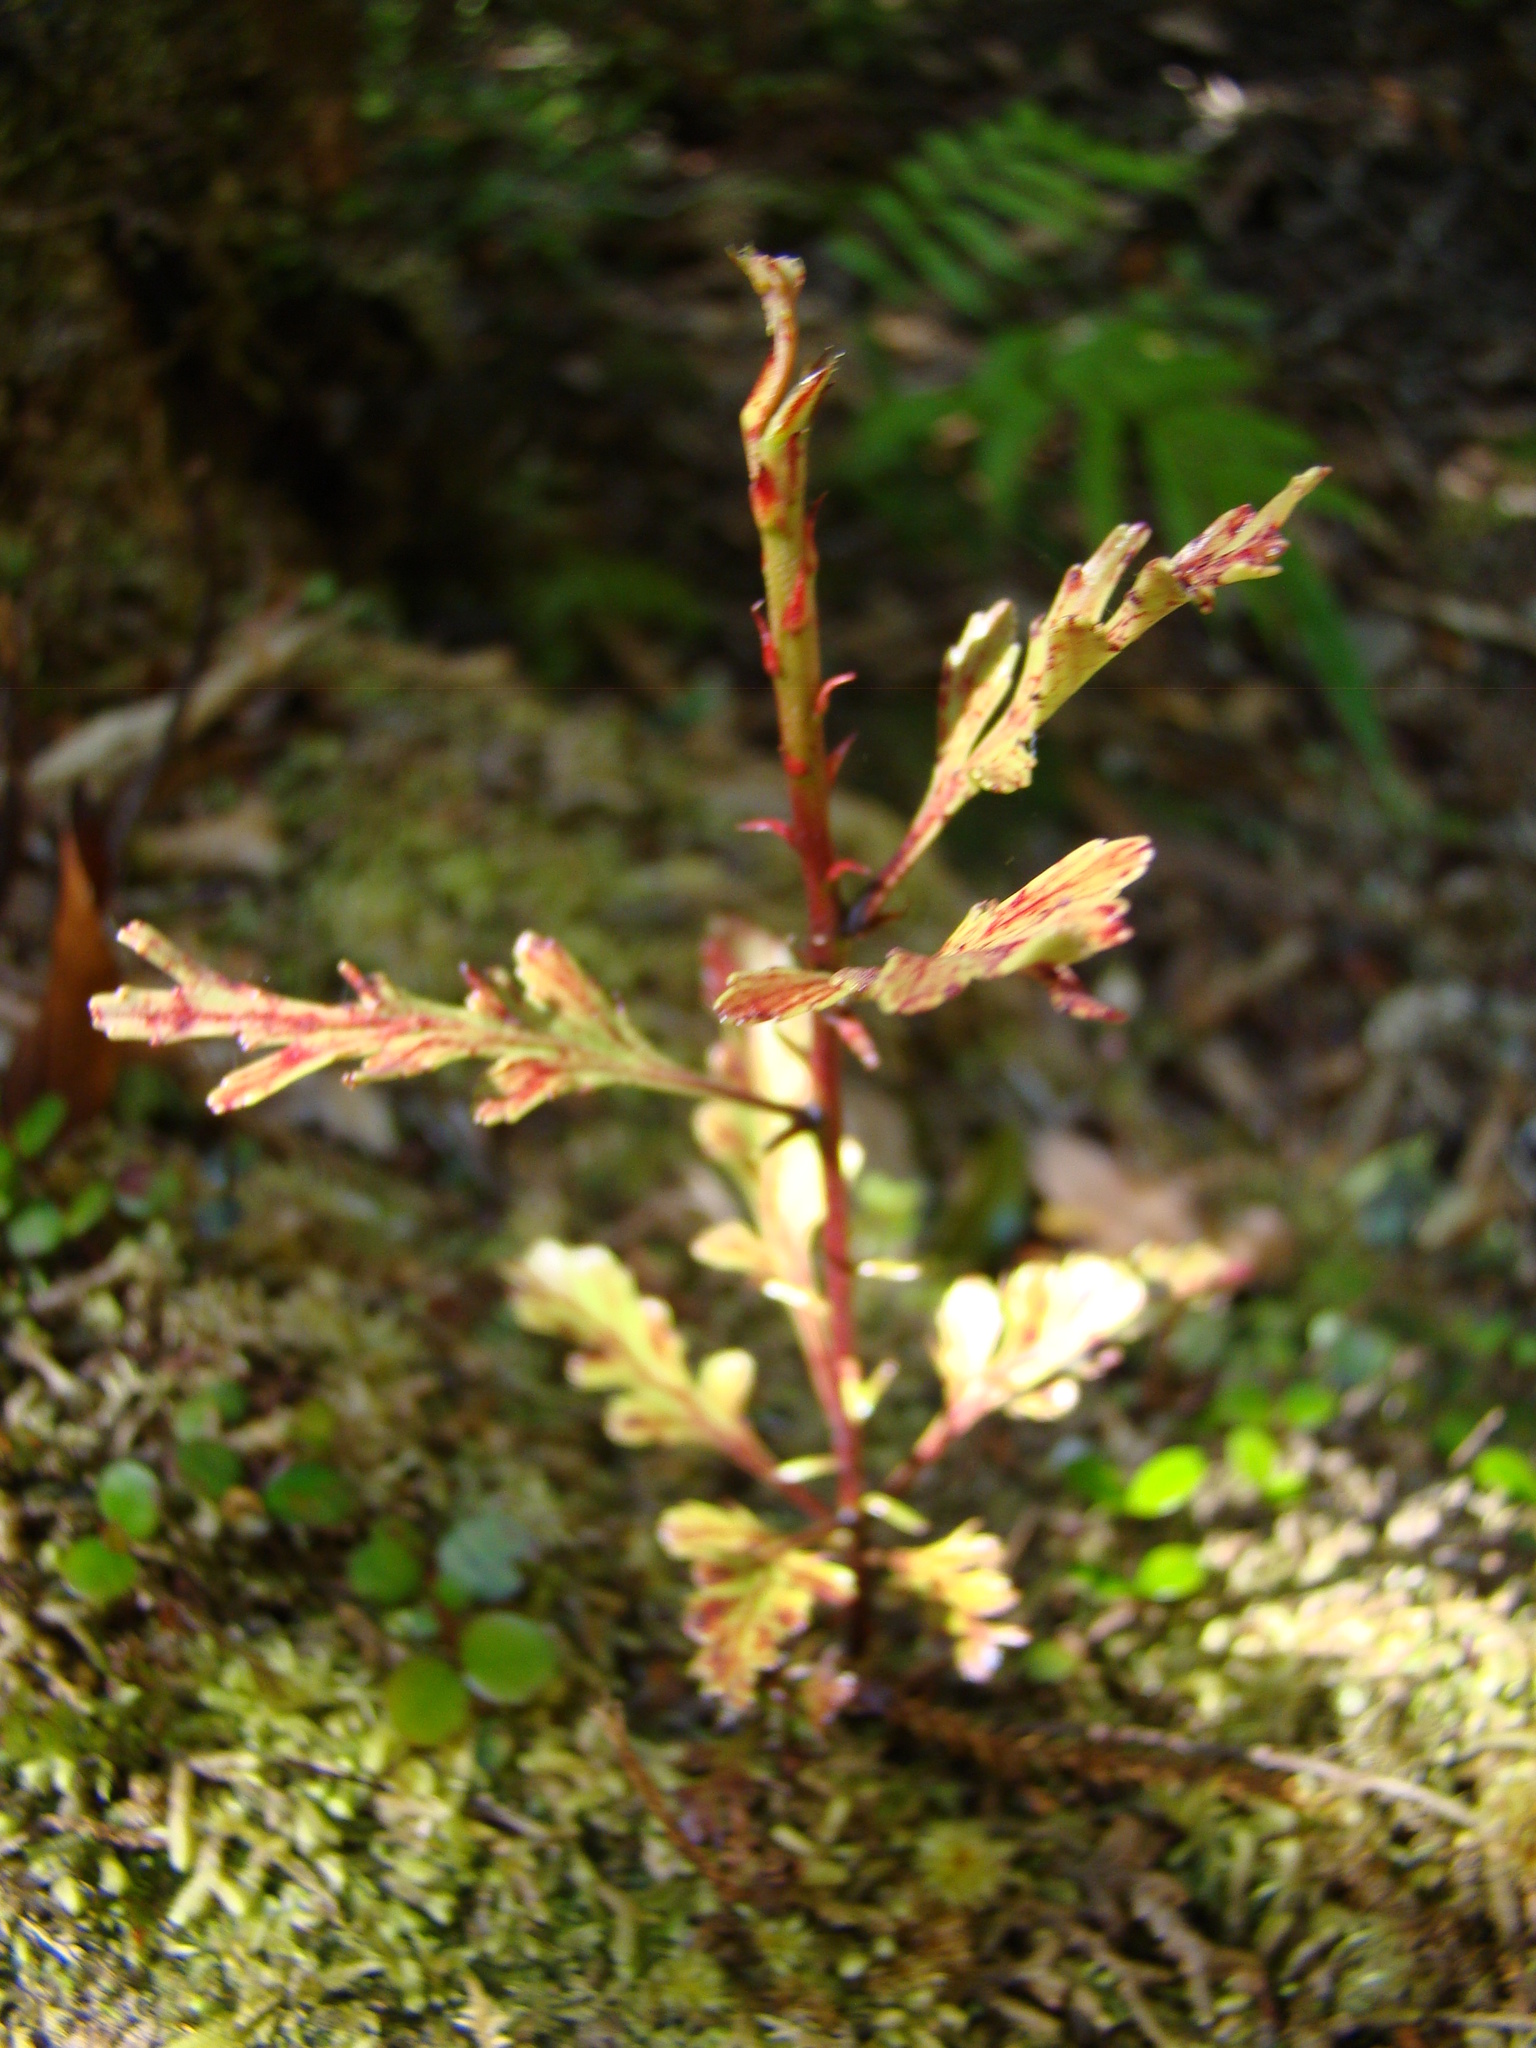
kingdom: Plantae
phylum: Tracheophyta
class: Pinopsida
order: Pinales
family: Phyllocladaceae
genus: Phyllocladus
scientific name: Phyllocladus trichomanoides
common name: Celery pine
